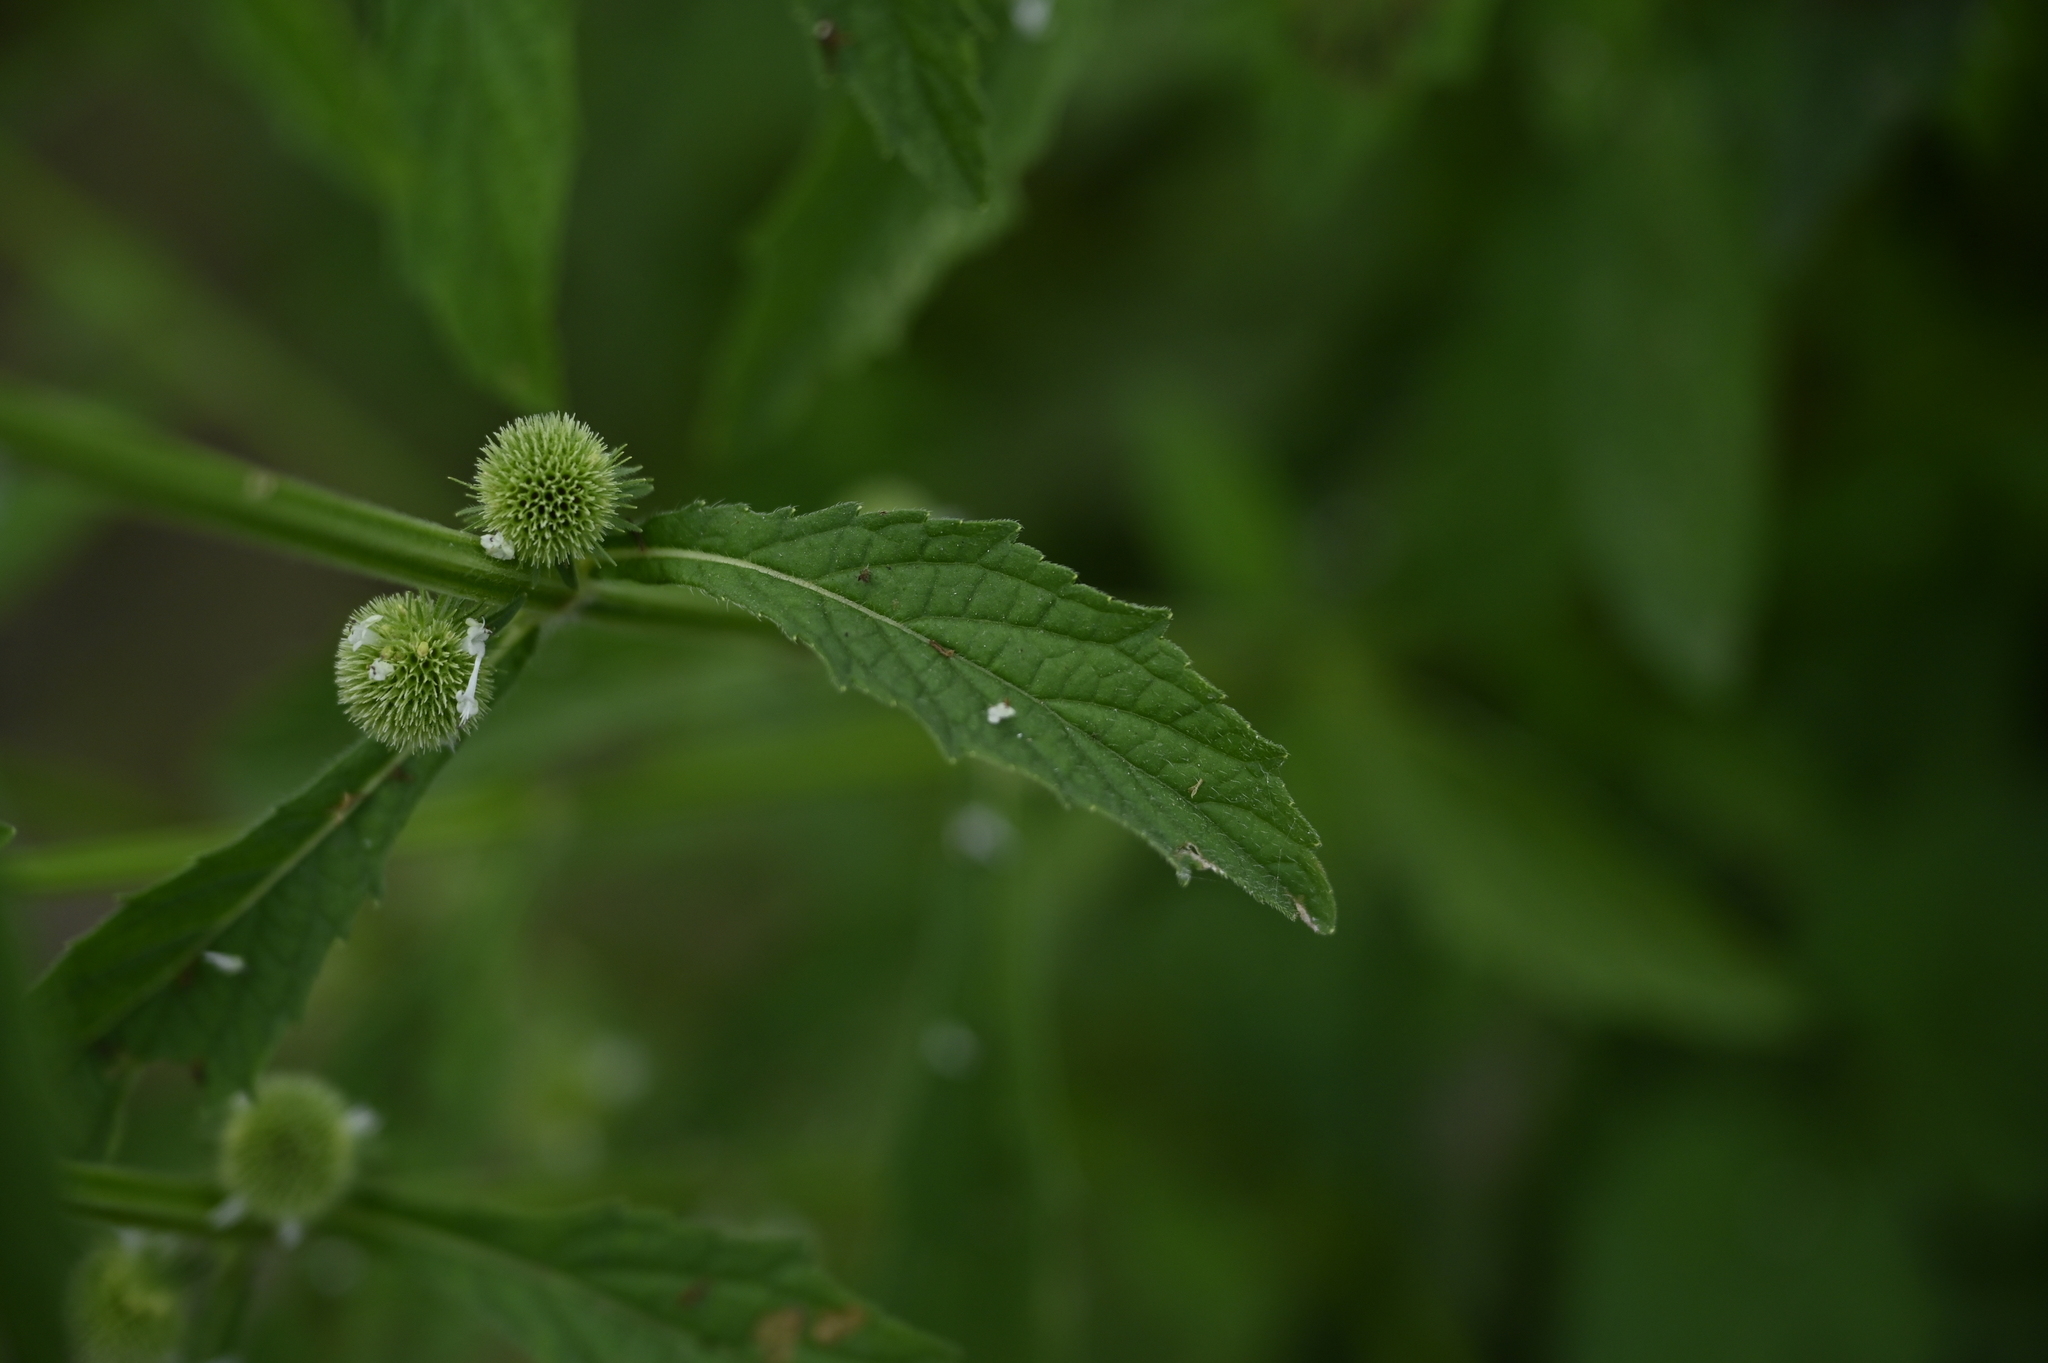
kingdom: Plantae
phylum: Tracheophyta
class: Magnoliopsida
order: Lamiales
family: Lamiaceae
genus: Hyptis
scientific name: Hyptis brevipes
